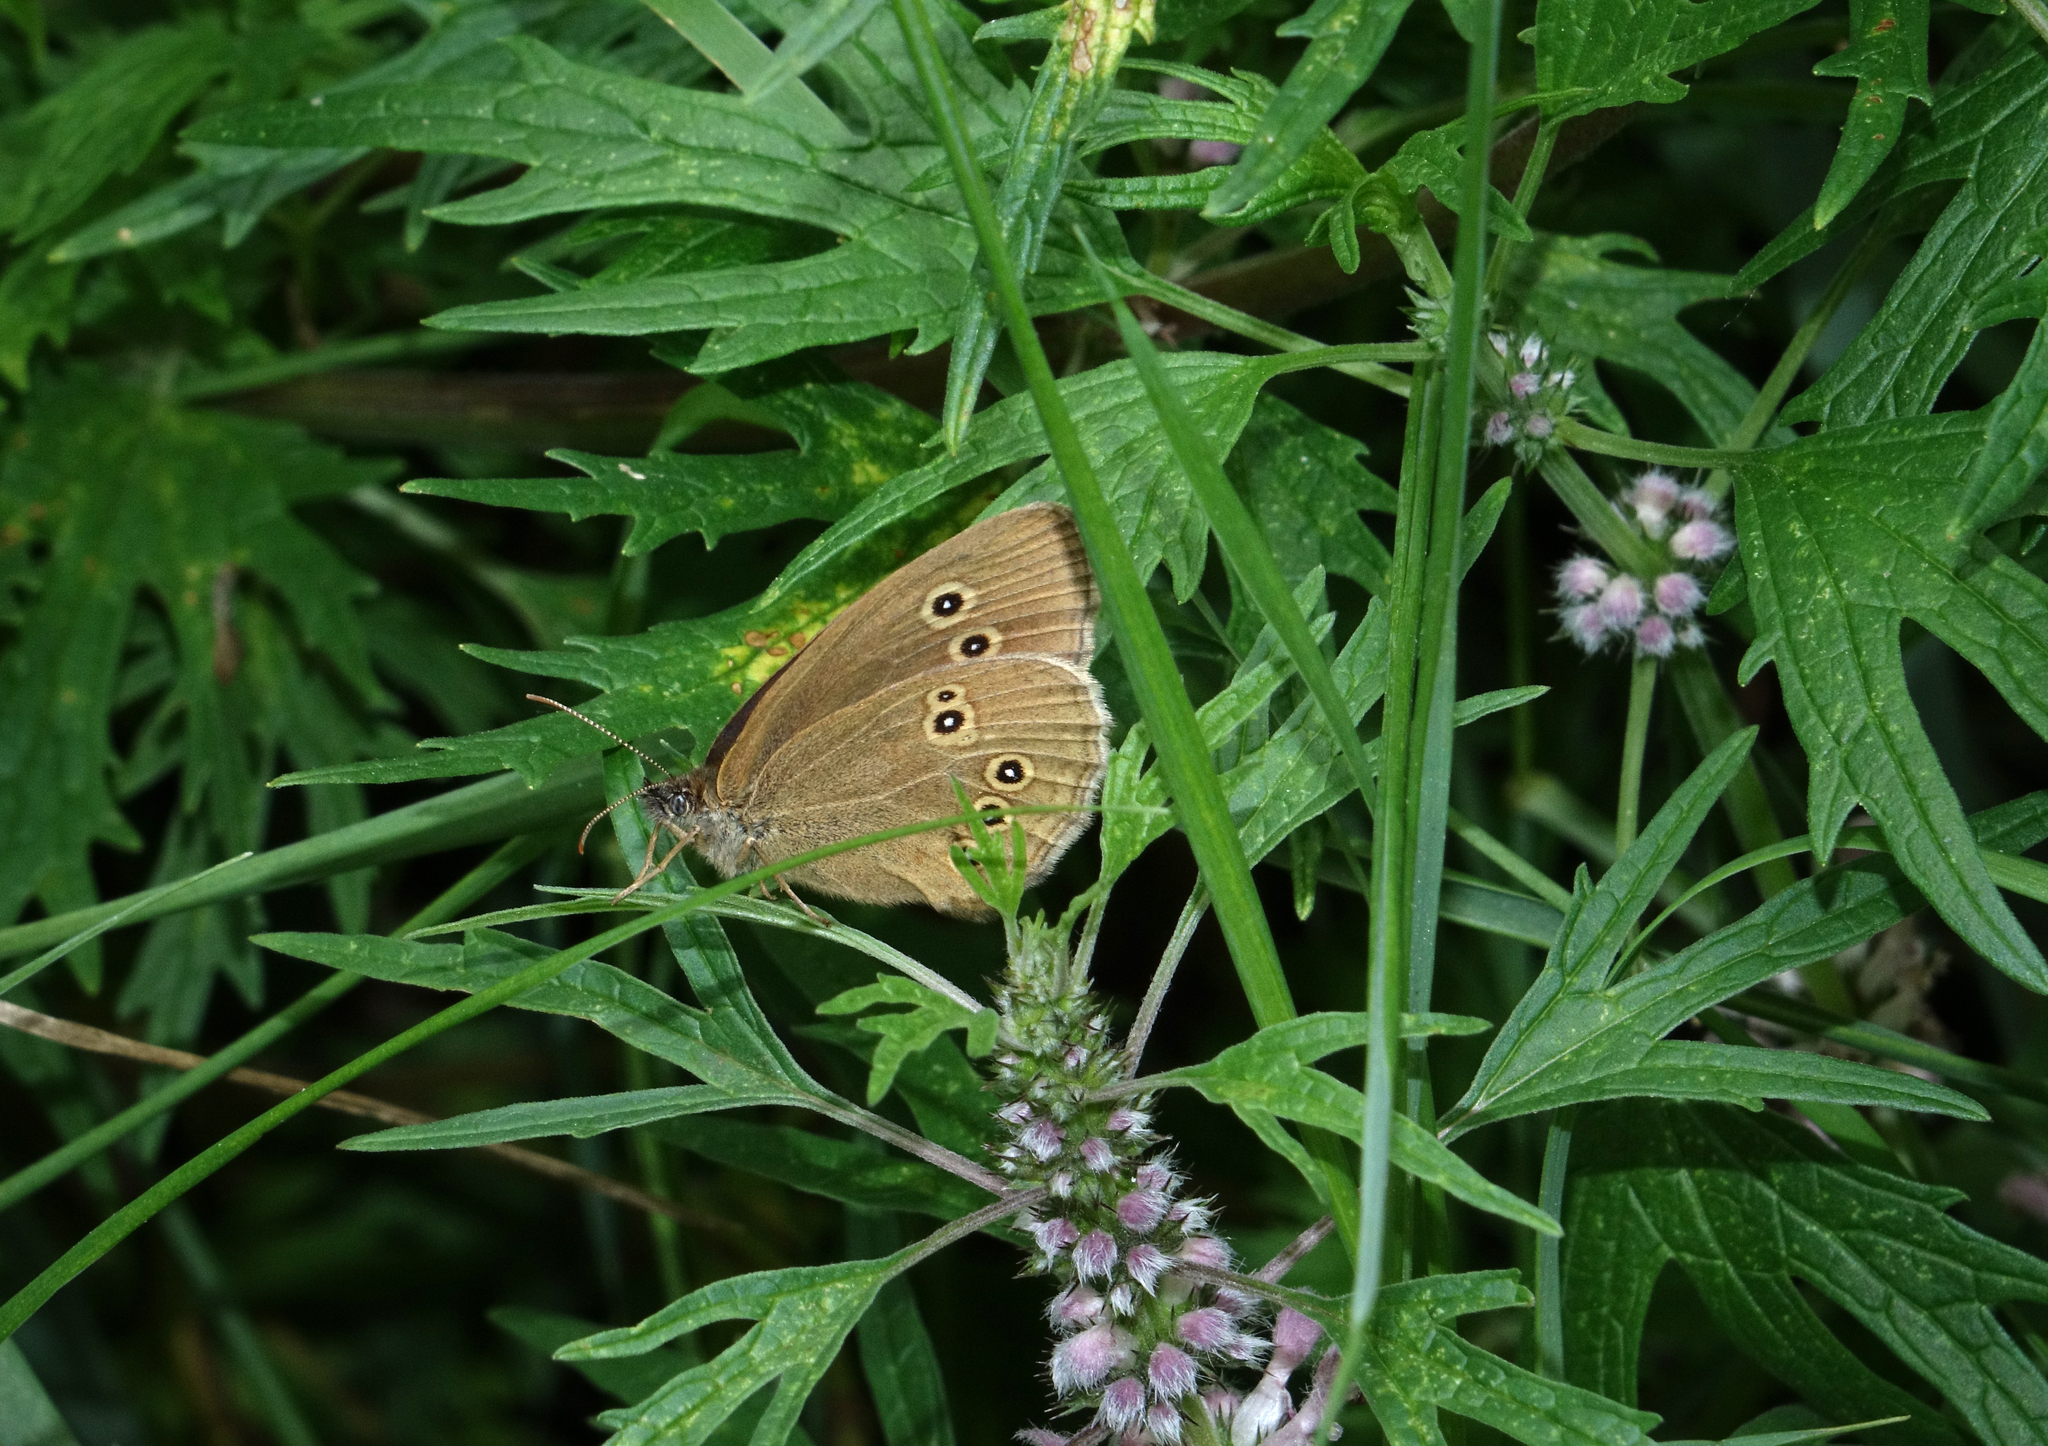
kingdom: Plantae
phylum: Tracheophyta
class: Magnoliopsida
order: Lamiales
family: Lamiaceae
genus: Leonurus
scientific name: Leonurus tataricus
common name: Chinese motherwort
